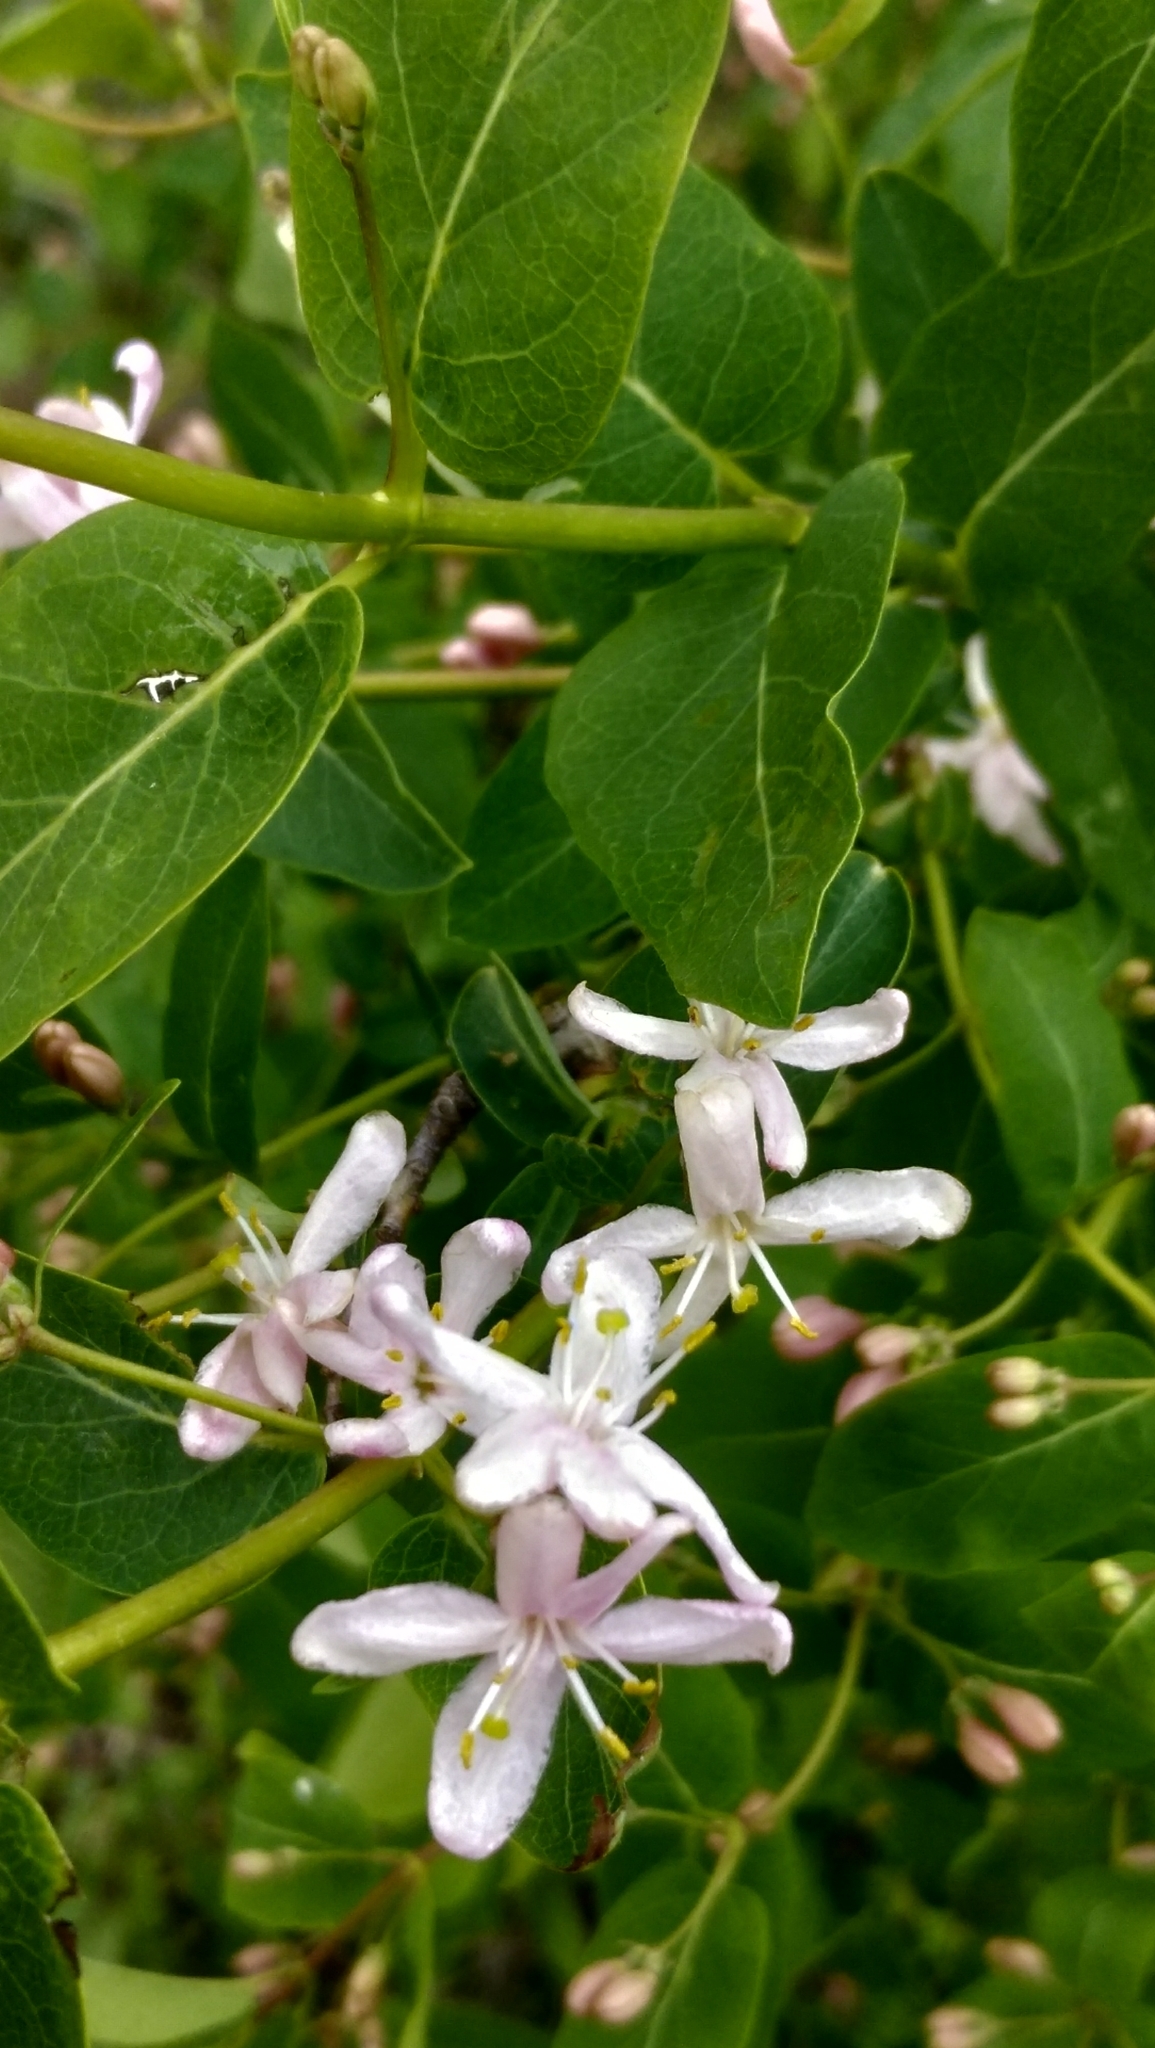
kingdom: Plantae
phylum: Tracheophyta
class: Magnoliopsida
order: Dipsacales
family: Caprifoliaceae
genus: Lonicera
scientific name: Lonicera tatarica
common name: Tatarian honeysuckle
